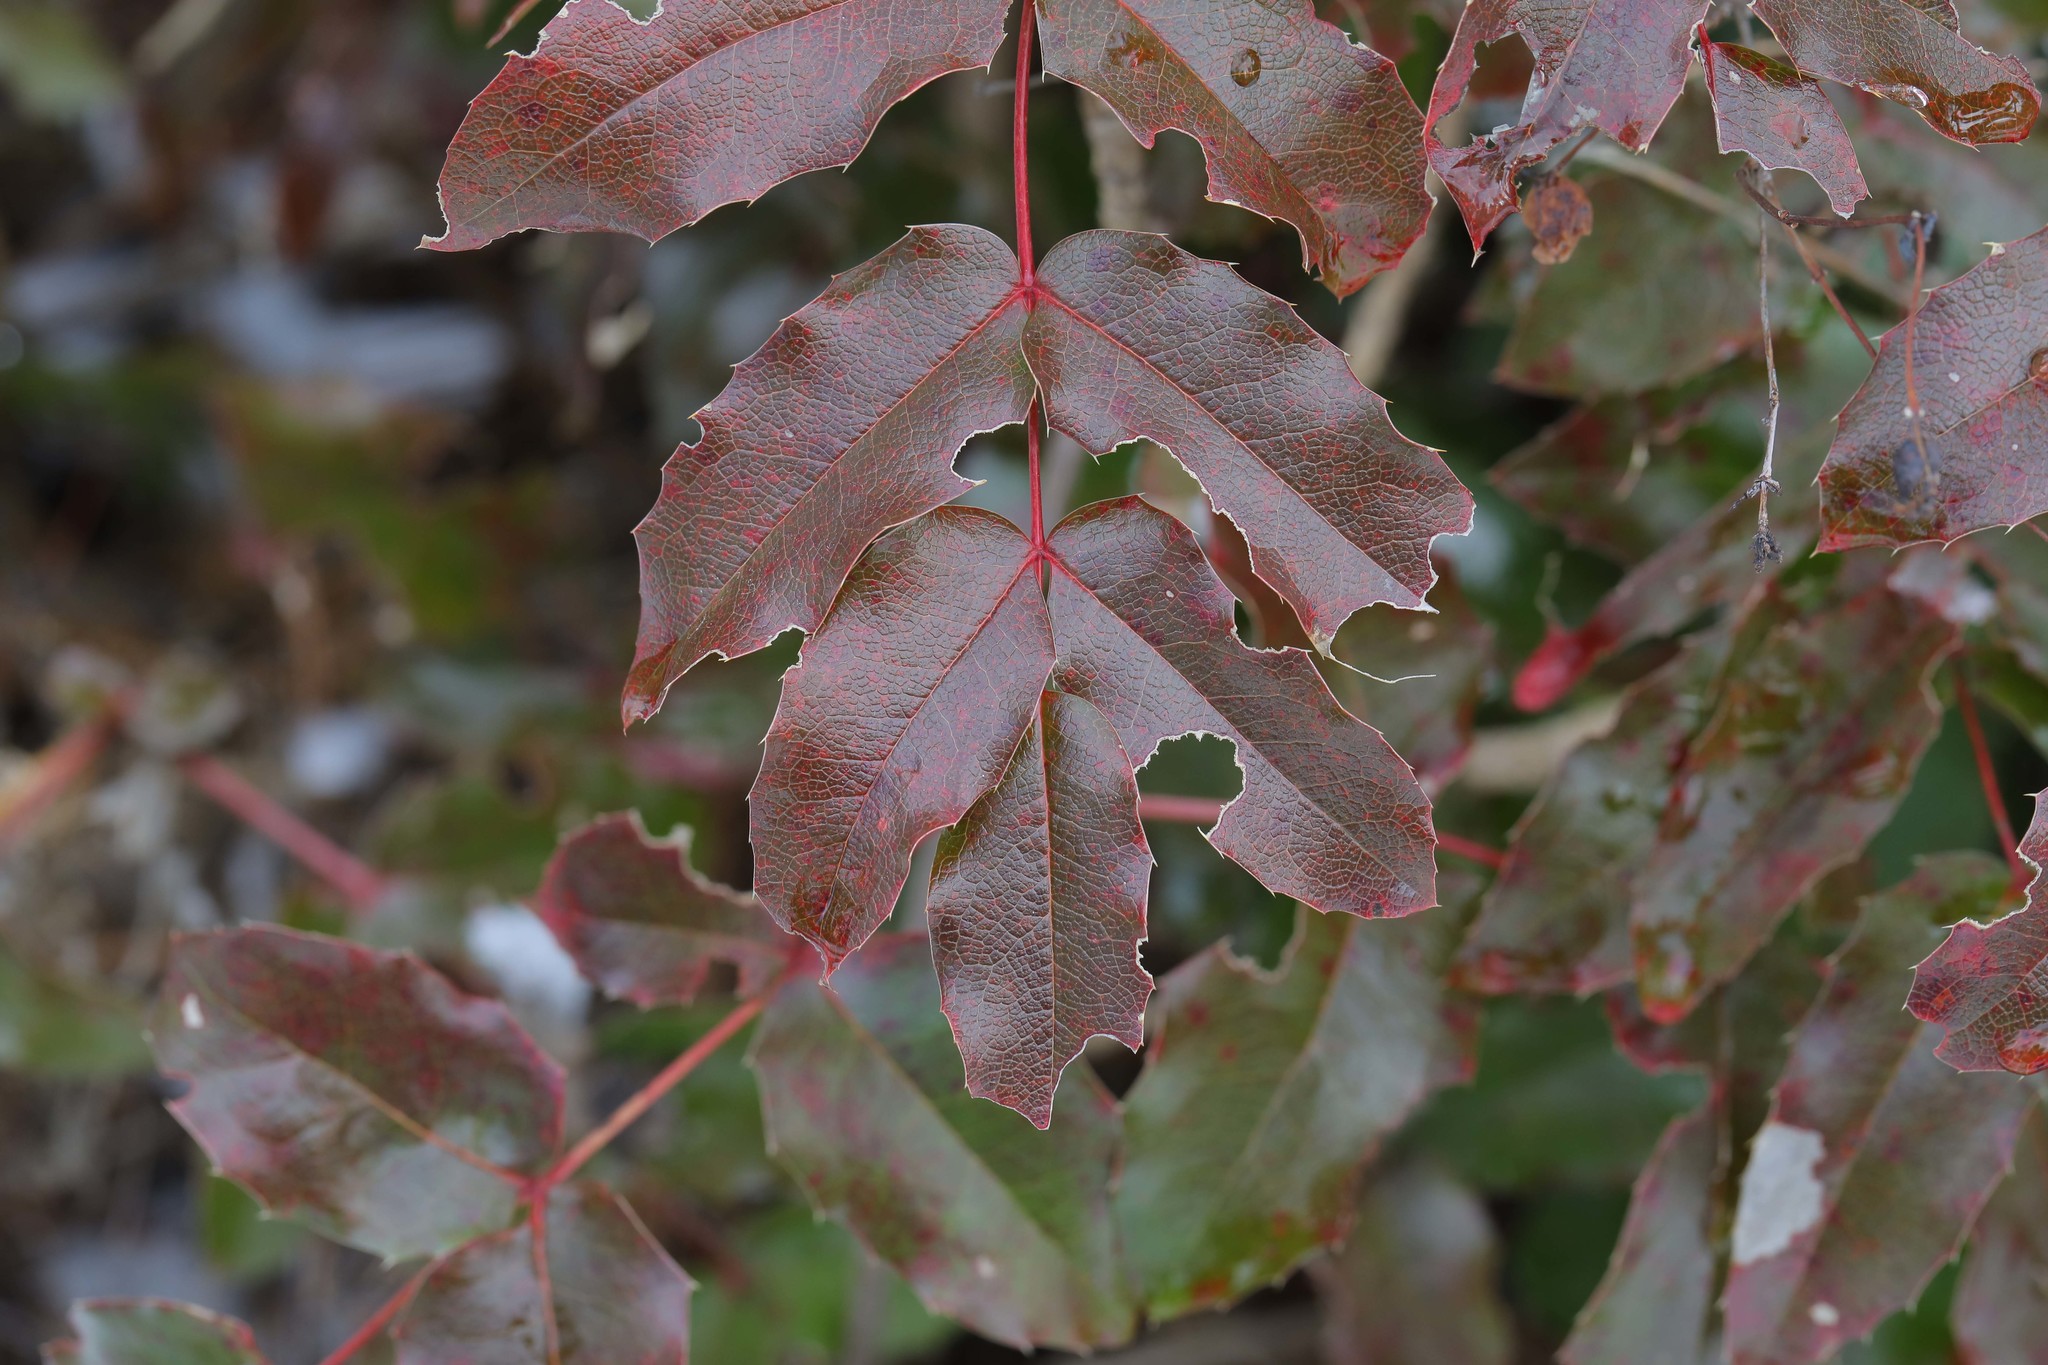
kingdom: Plantae
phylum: Tracheophyta
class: Magnoliopsida
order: Ranunculales
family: Berberidaceae
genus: Mahonia
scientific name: Mahonia aquifolium
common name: Oregon-grape
